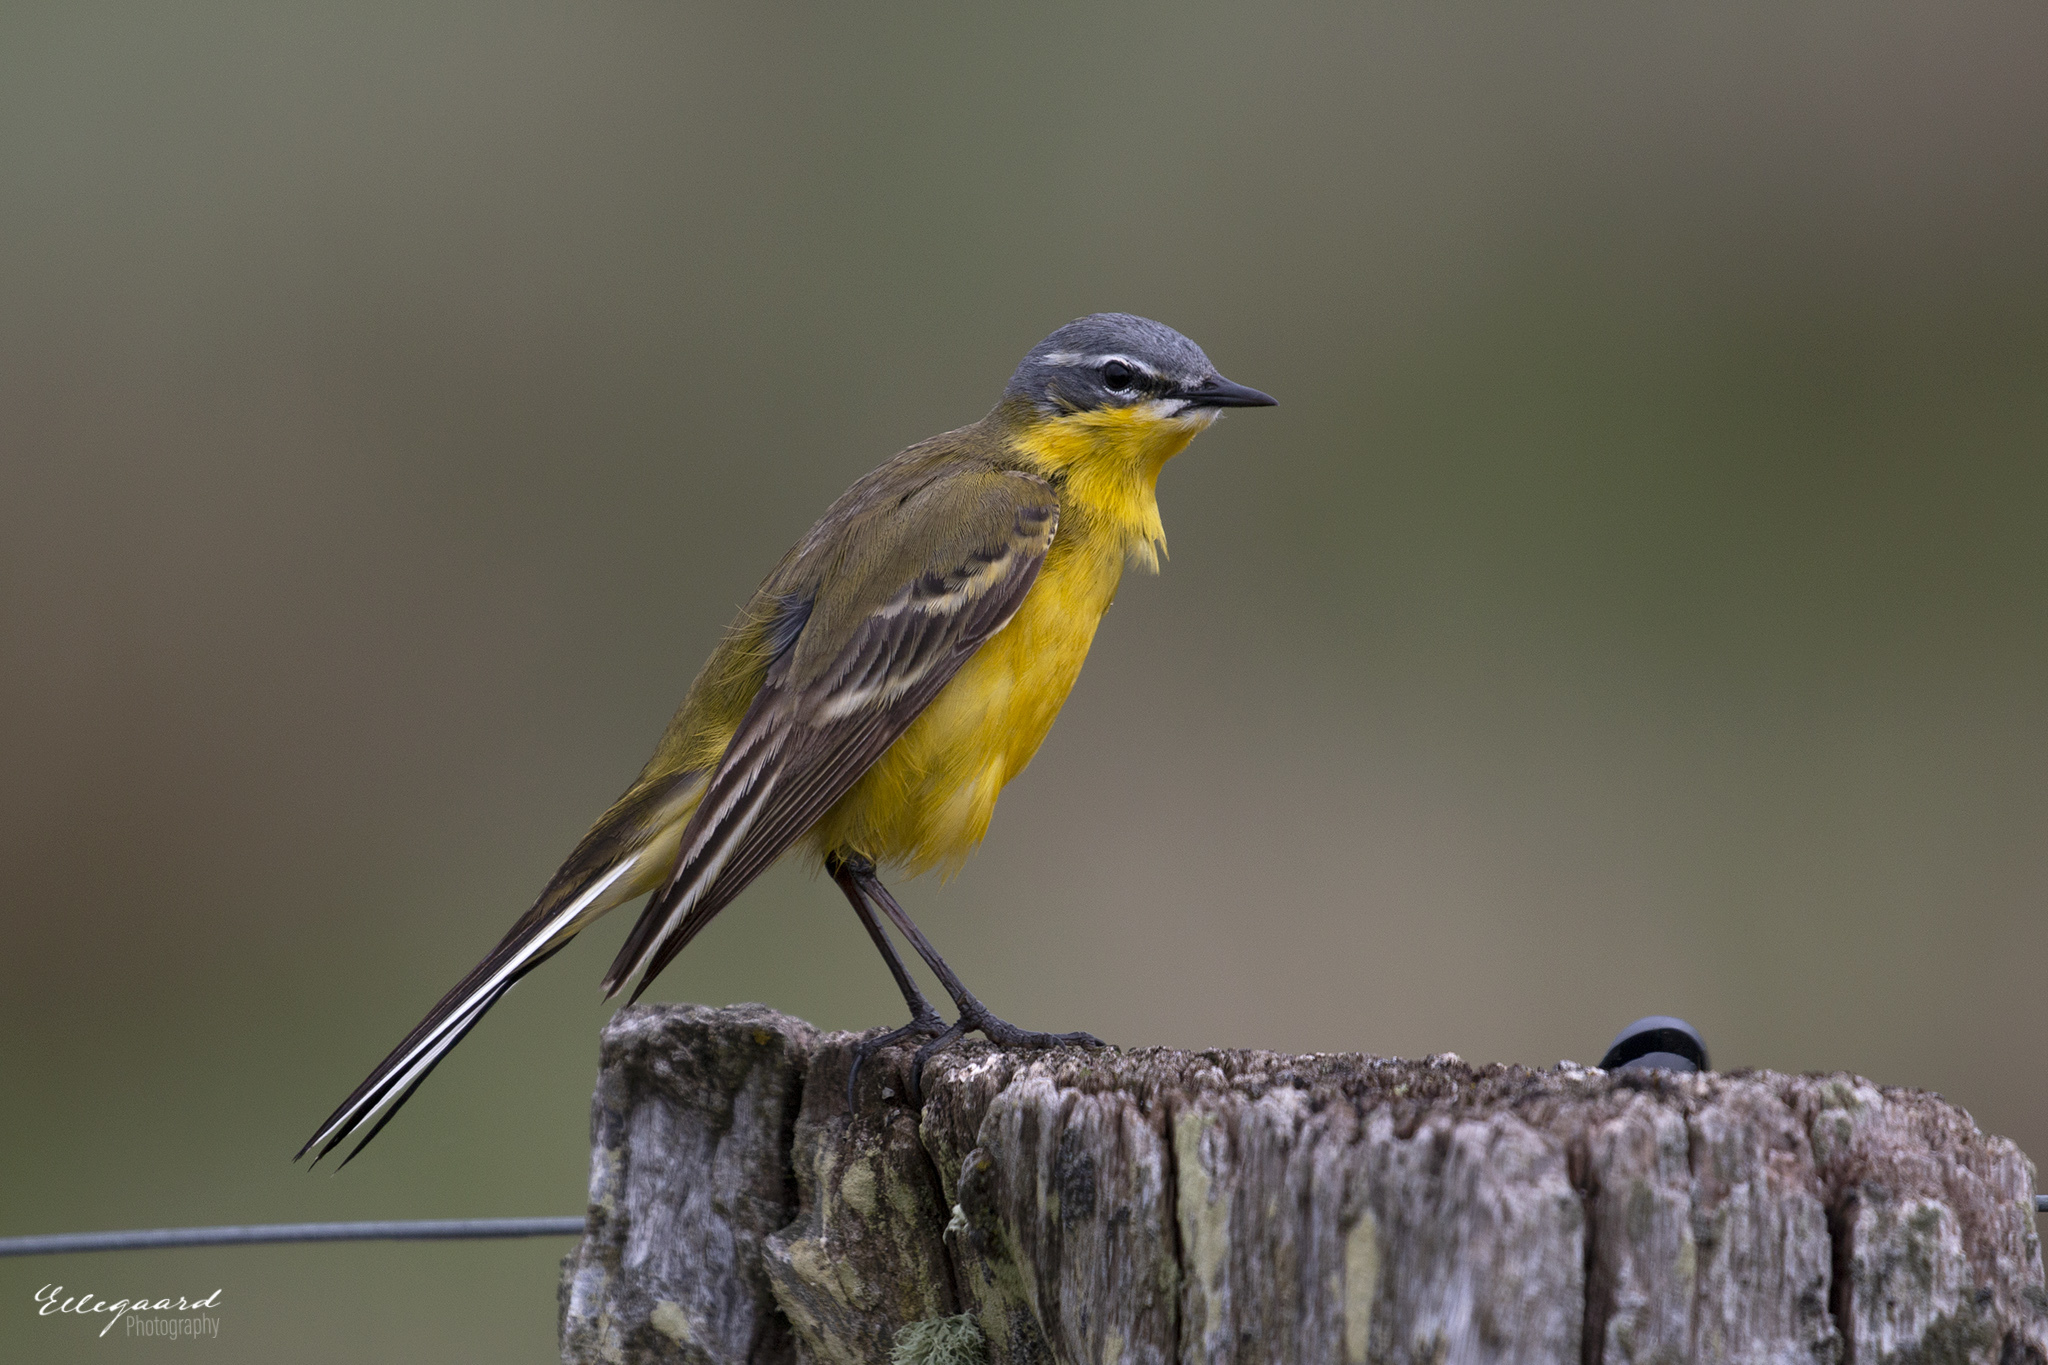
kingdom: Animalia
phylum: Chordata
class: Aves
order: Passeriformes
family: Motacillidae
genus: Motacilla
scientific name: Motacilla flava
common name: Western yellow wagtail
